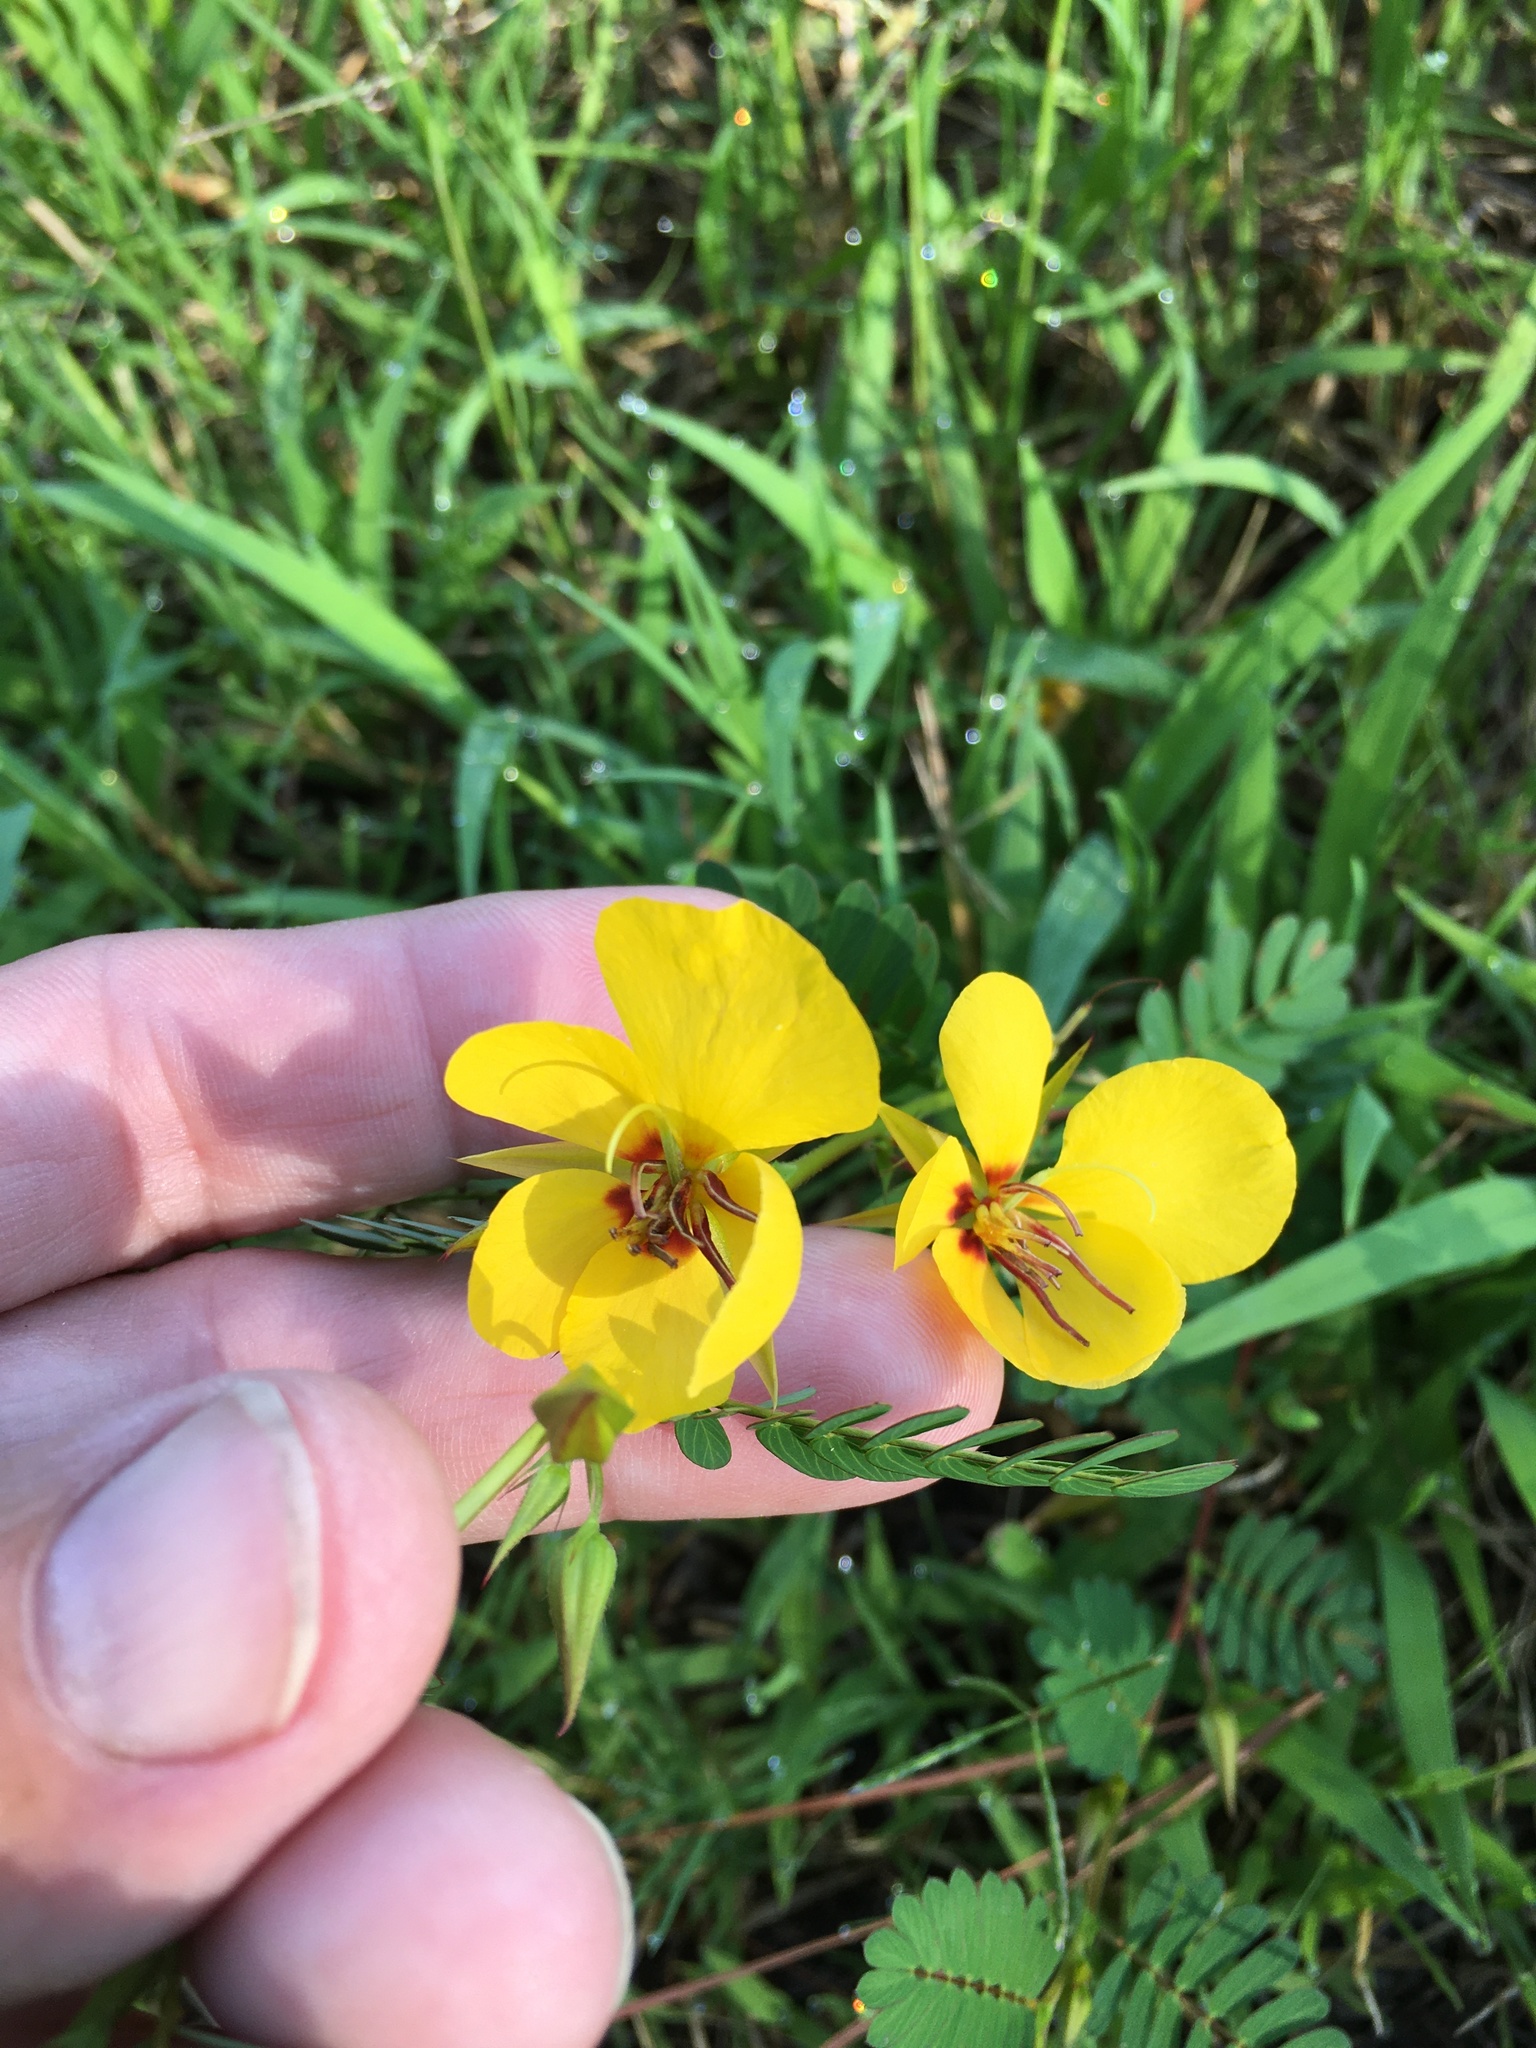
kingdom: Plantae
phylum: Tracheophyta
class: Magnoliopsida
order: Fabales
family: Fabaceae
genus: Chamaecrista
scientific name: Chamaecrista fasciculata
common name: Golden cassia
